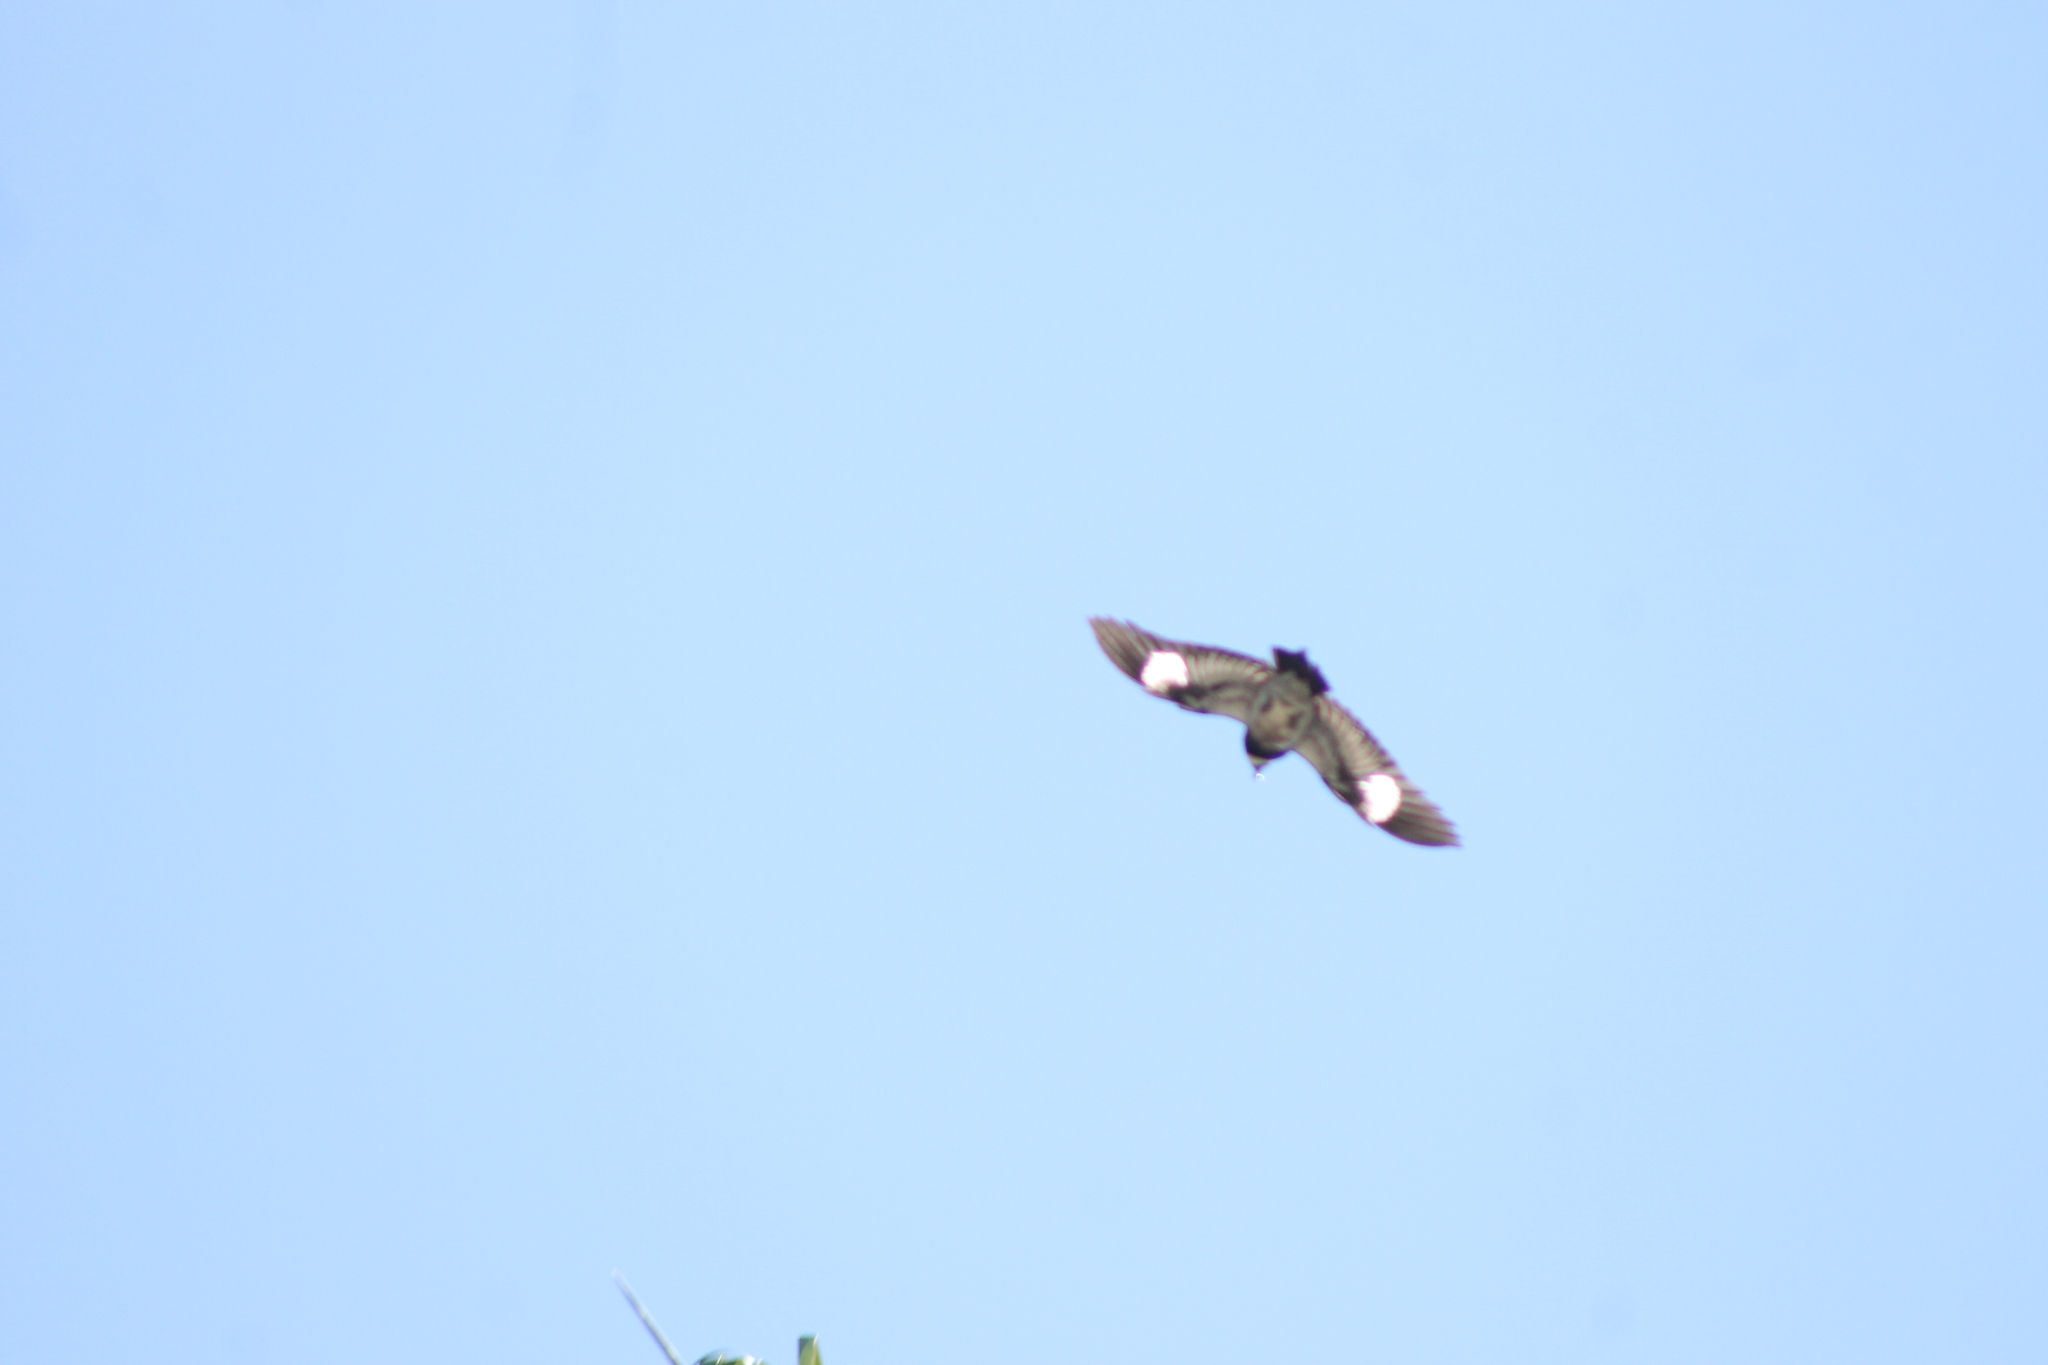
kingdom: Animalia
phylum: Chordata
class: Aves
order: Piciformes
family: Picidae
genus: Melanerpes
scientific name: Melanerpes formicivorus
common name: Acorn woodpecker
